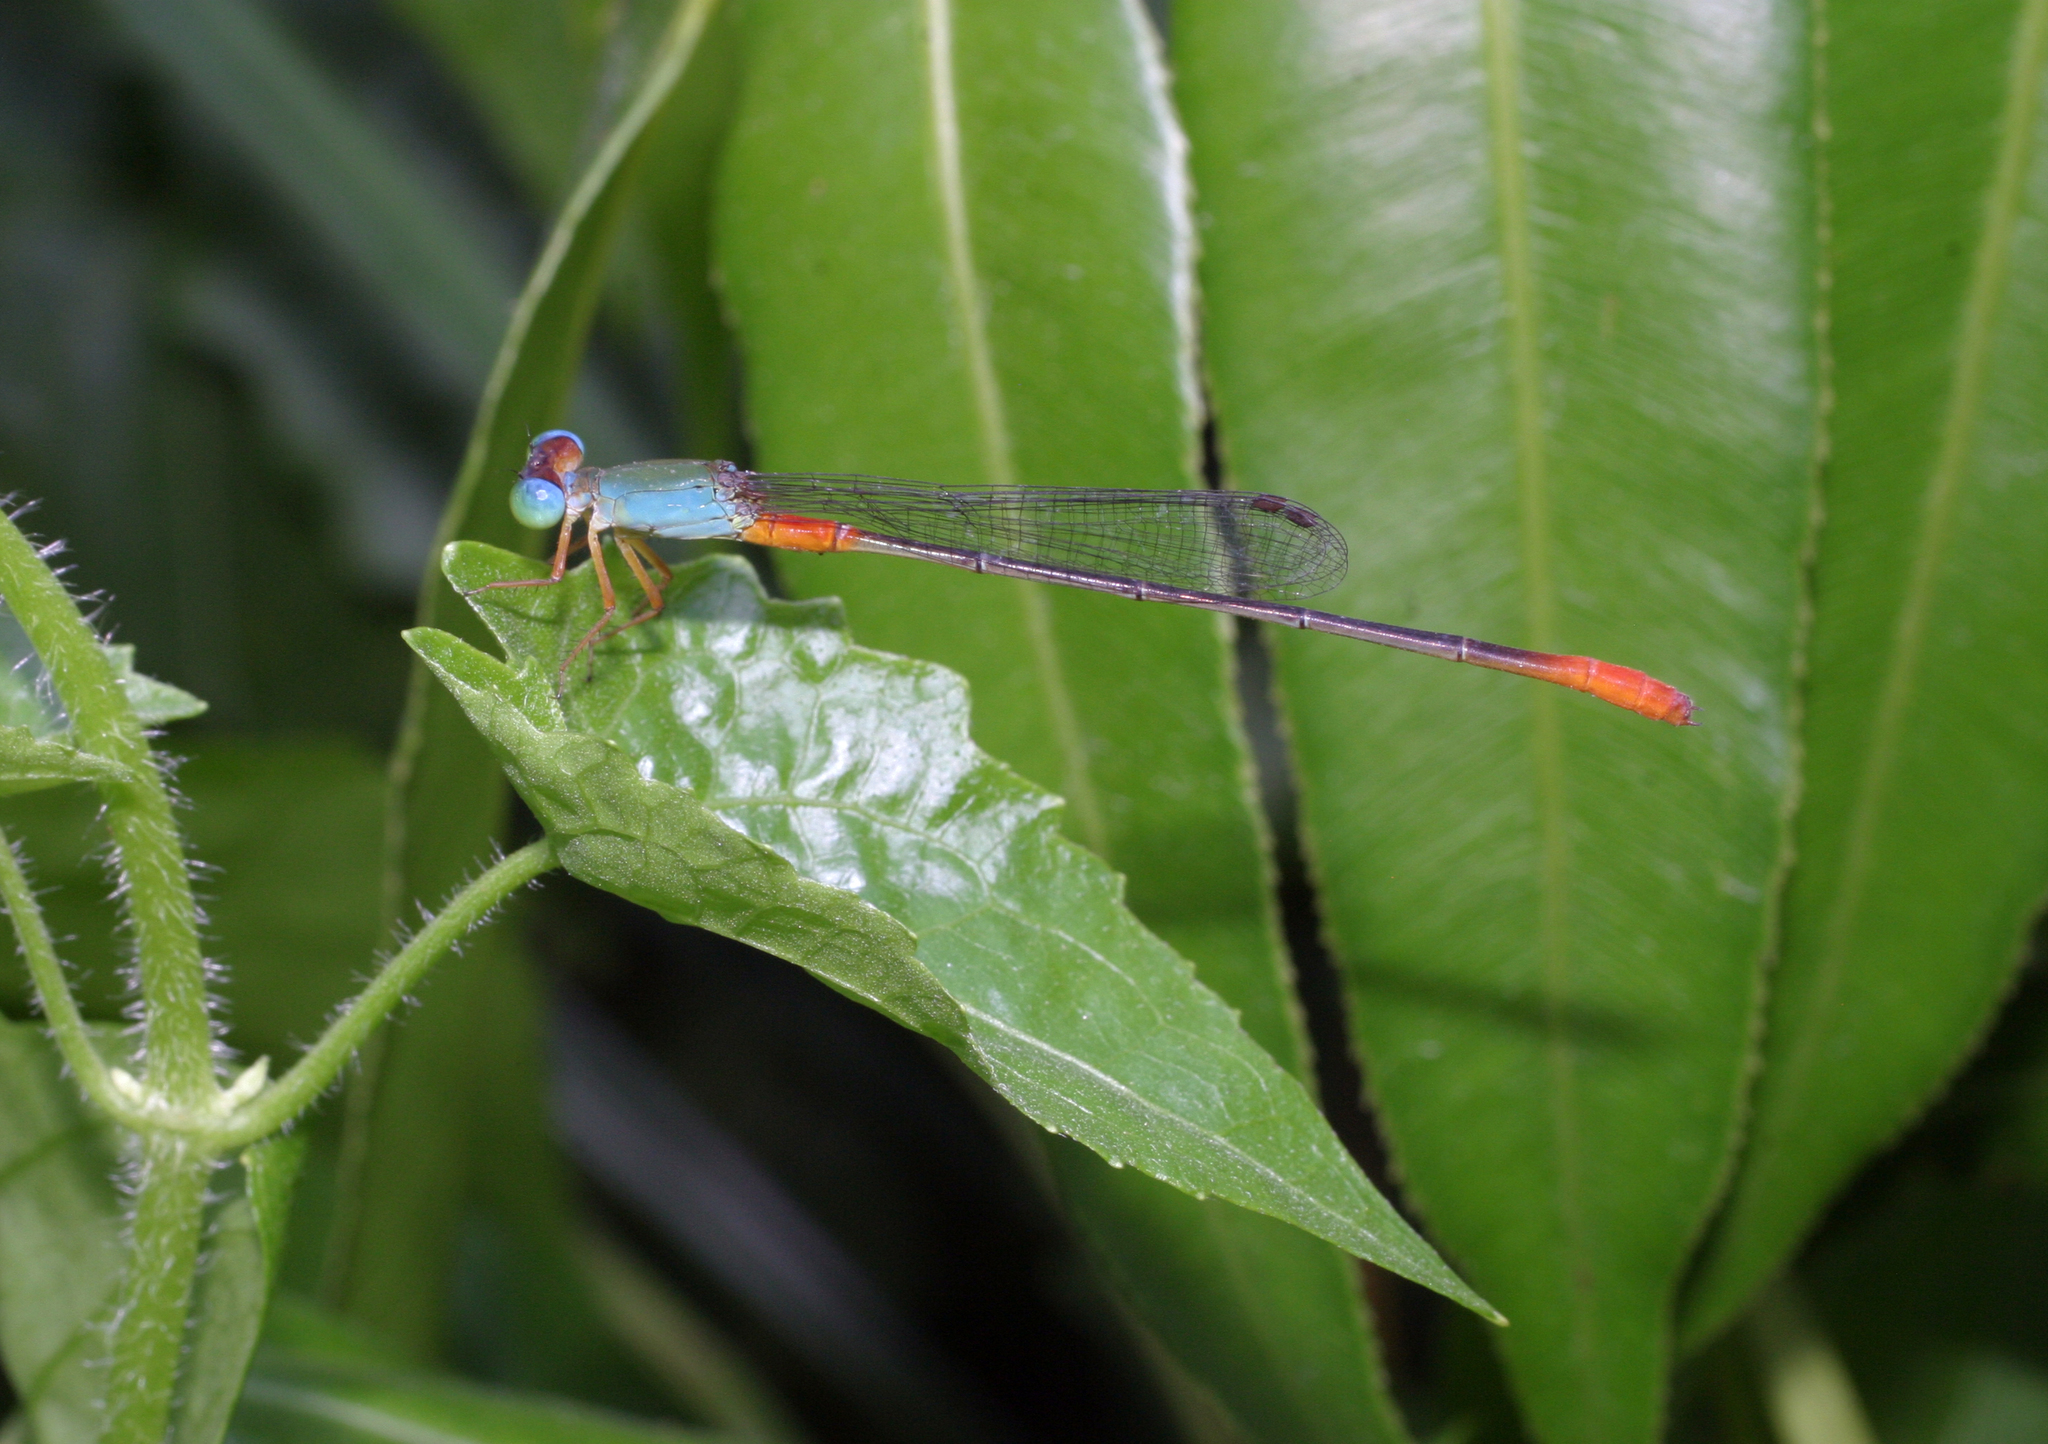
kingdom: Animalia
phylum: Arthropoda
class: Insecta
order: Odonata
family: Coenagrionidae
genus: Ceriagrion
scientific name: Ceriagrion cerinorubellum
